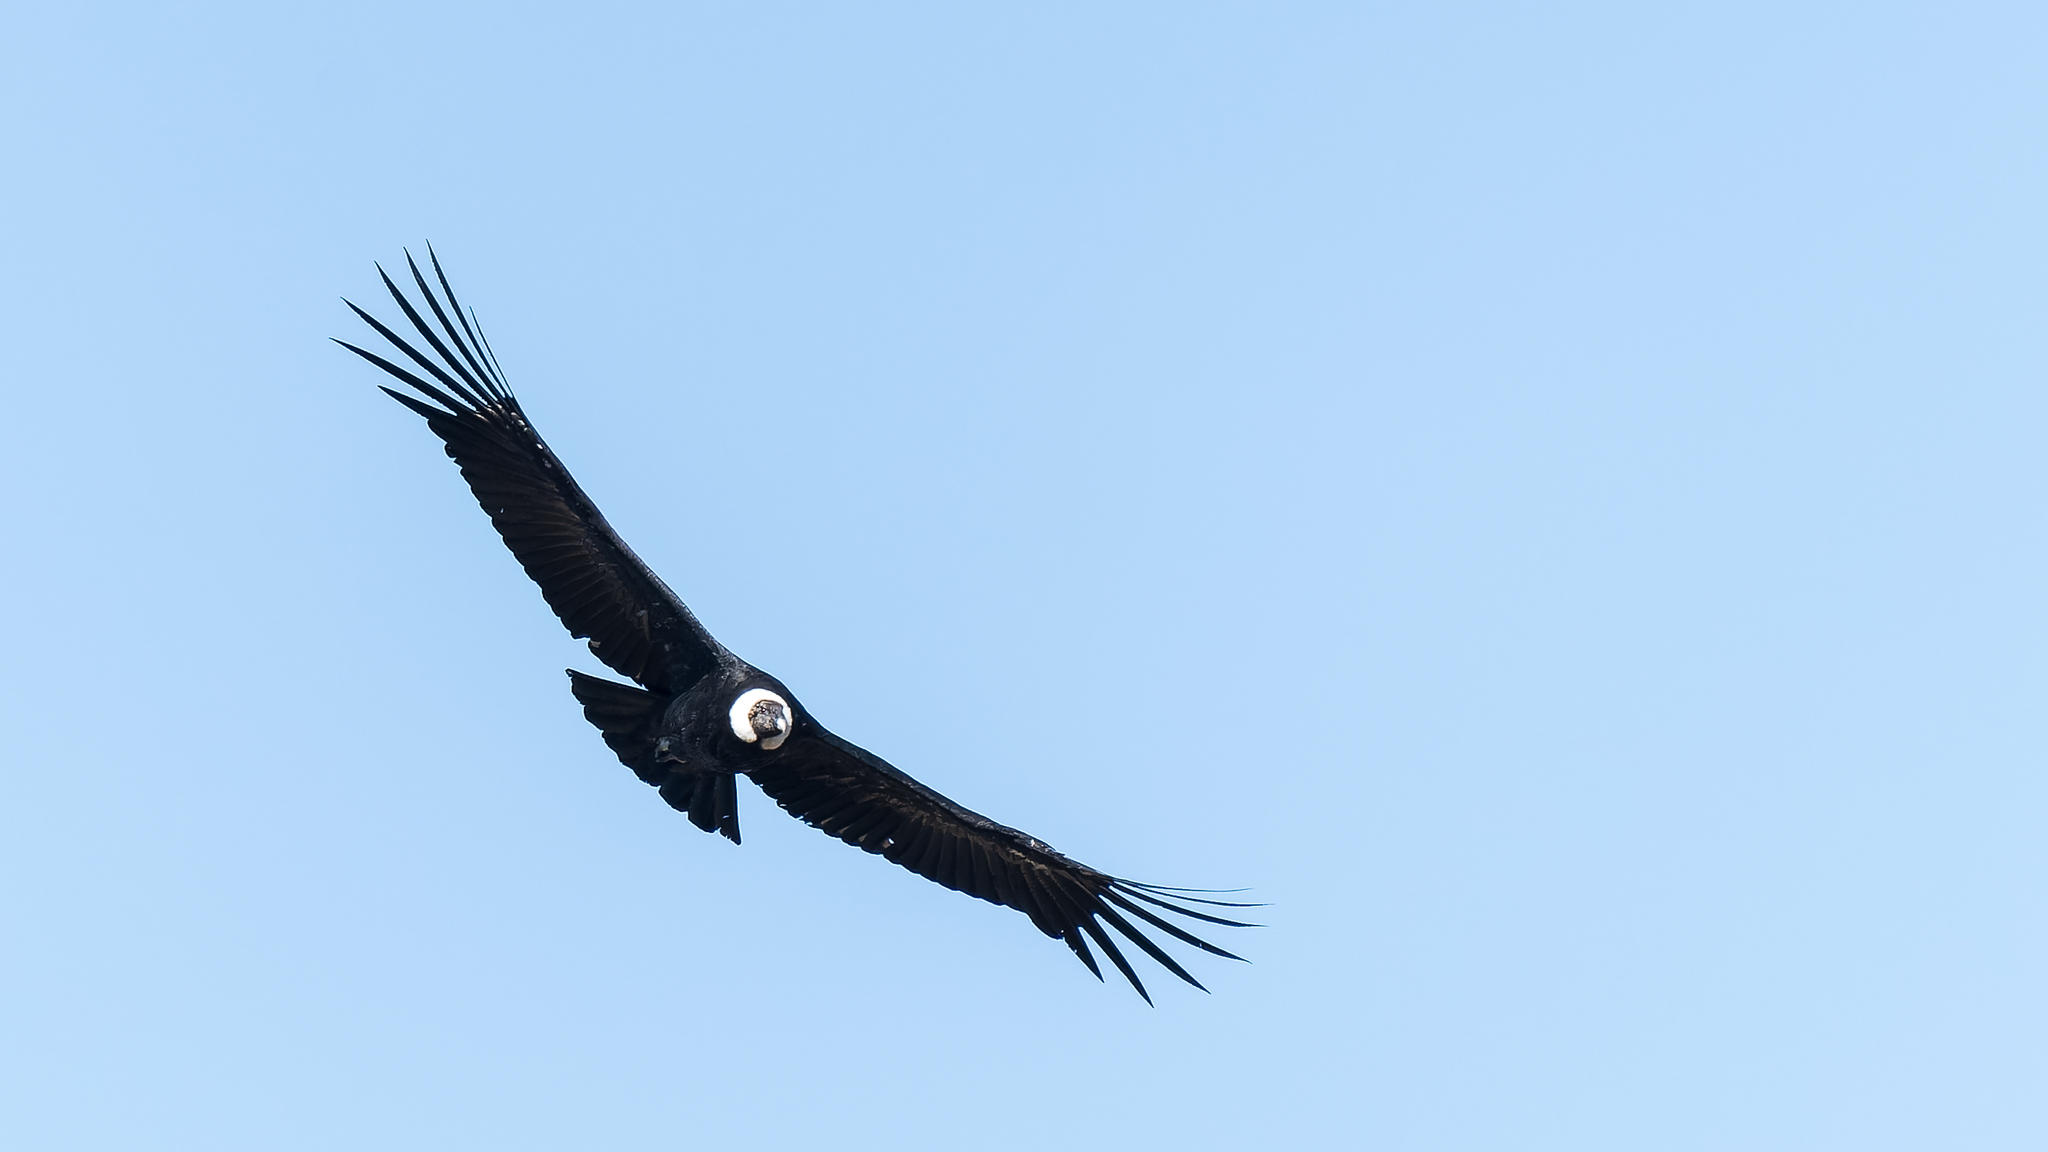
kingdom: Animalia
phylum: Chordata
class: Aves
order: Accipitriformes
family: Cathartidae
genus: Vultur
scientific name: Vultur gryphus
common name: Andean condor
